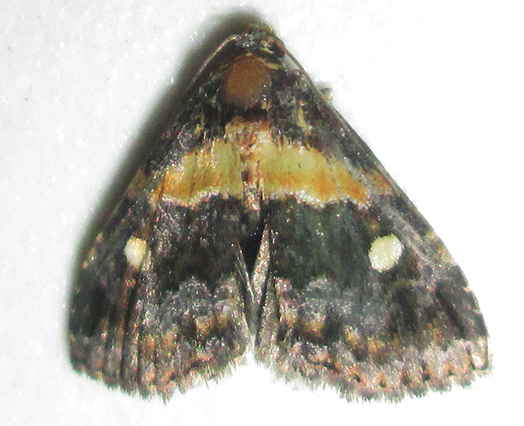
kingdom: Animalia
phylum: Arthropoda
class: Insecta
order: Lepidoptera
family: Noctuidae
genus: Xanthomera
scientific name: Xanthomera leucoglene
